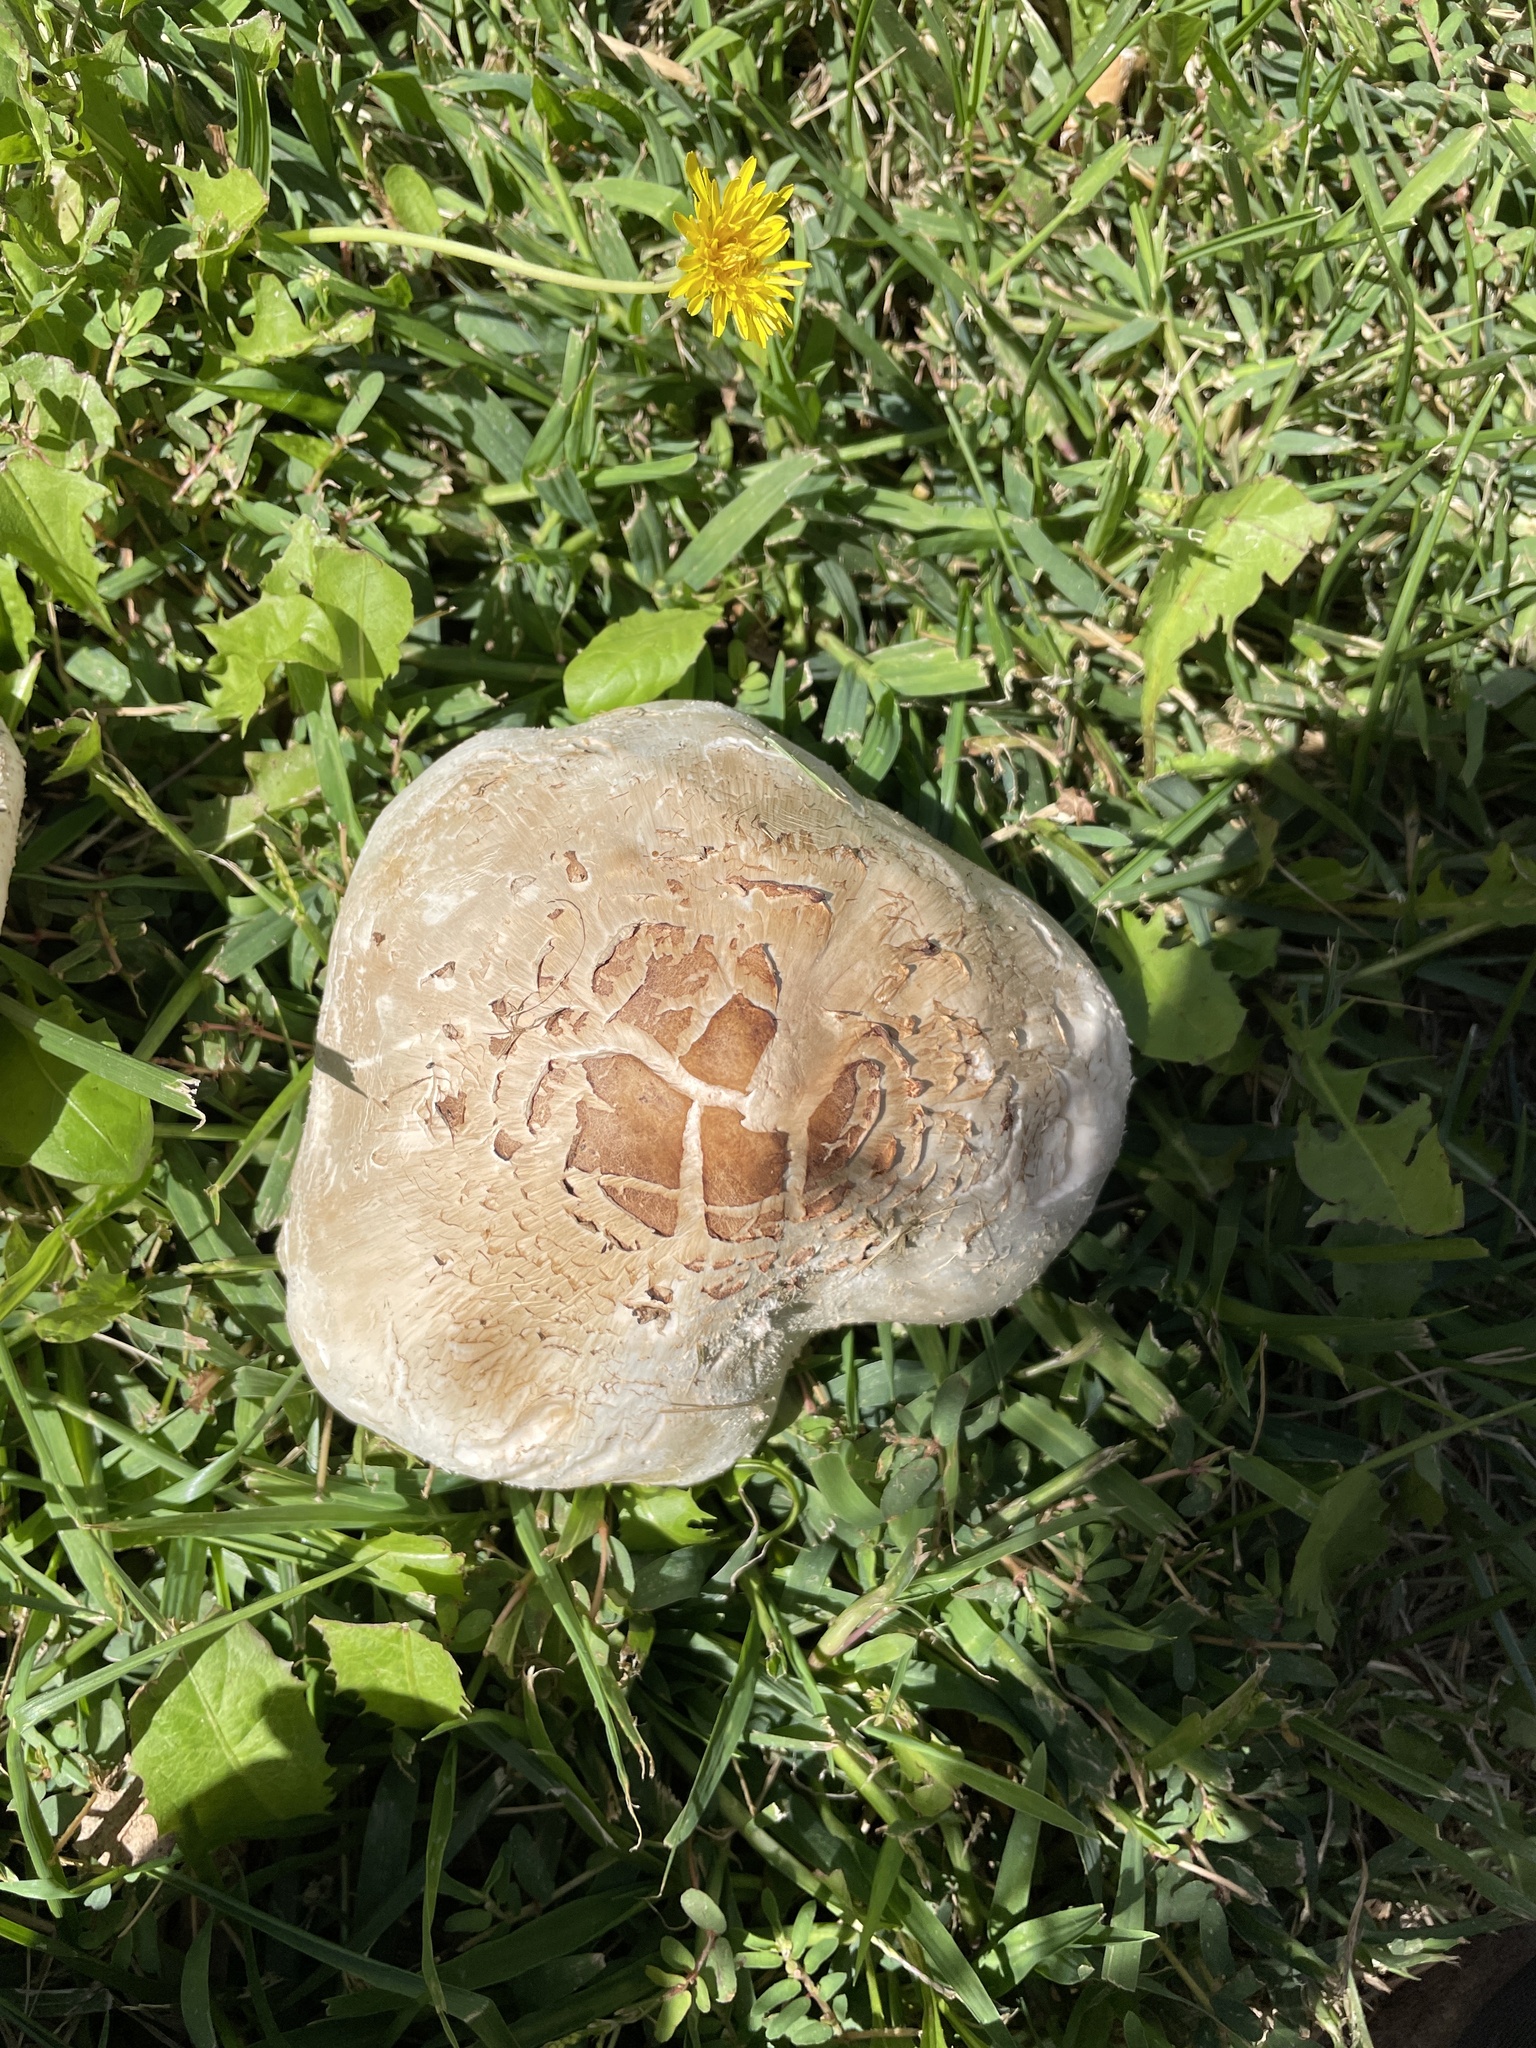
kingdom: Fungi
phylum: Basidiomycota
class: Agaricomycetes
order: Agaricales
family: Agaricaceae
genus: Chlorophyllum
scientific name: Chlorophyllum molybdites
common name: False parasol
